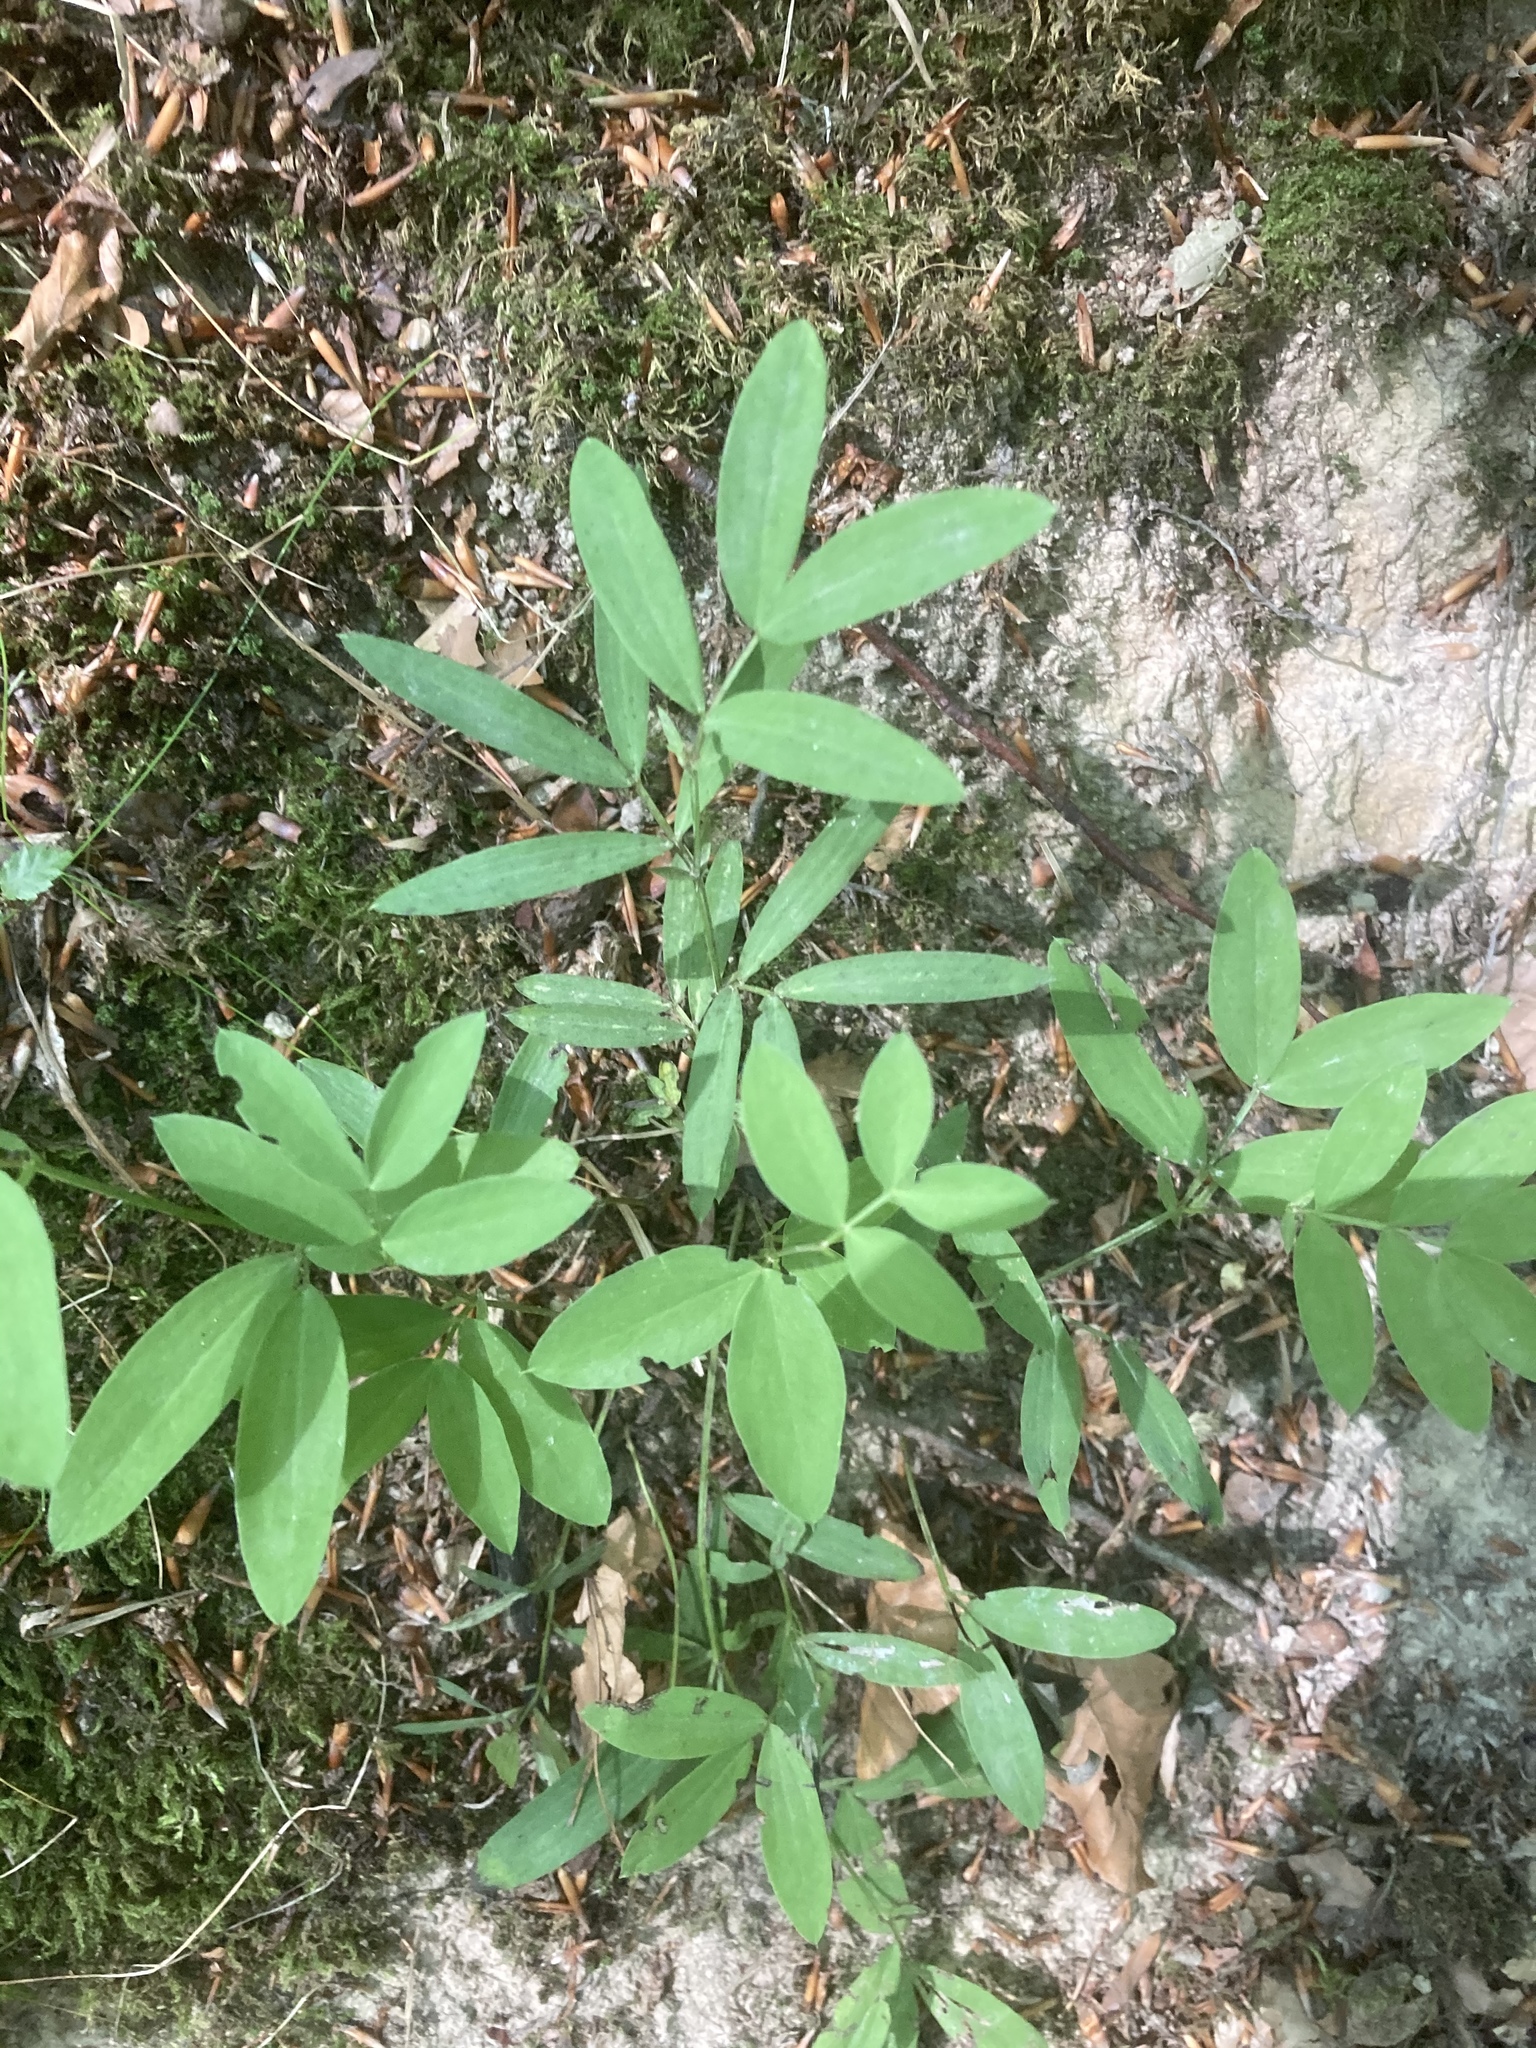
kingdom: Plantae
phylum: Tracheophyta
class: Magnoliopsida
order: Fabales
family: Fabaceae
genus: Lathyrus
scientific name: Lathyrus linifolius
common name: Bitter-vetch
